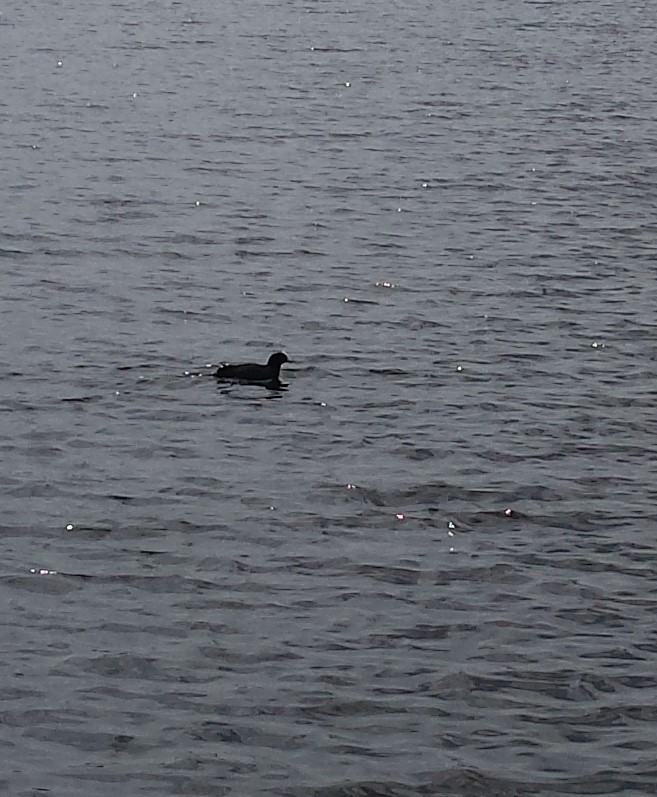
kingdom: Animalia
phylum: Chordata
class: Aves
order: Gruiformes
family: Rallidae
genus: Fulica
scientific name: Fulica atra
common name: Eurasian coot
